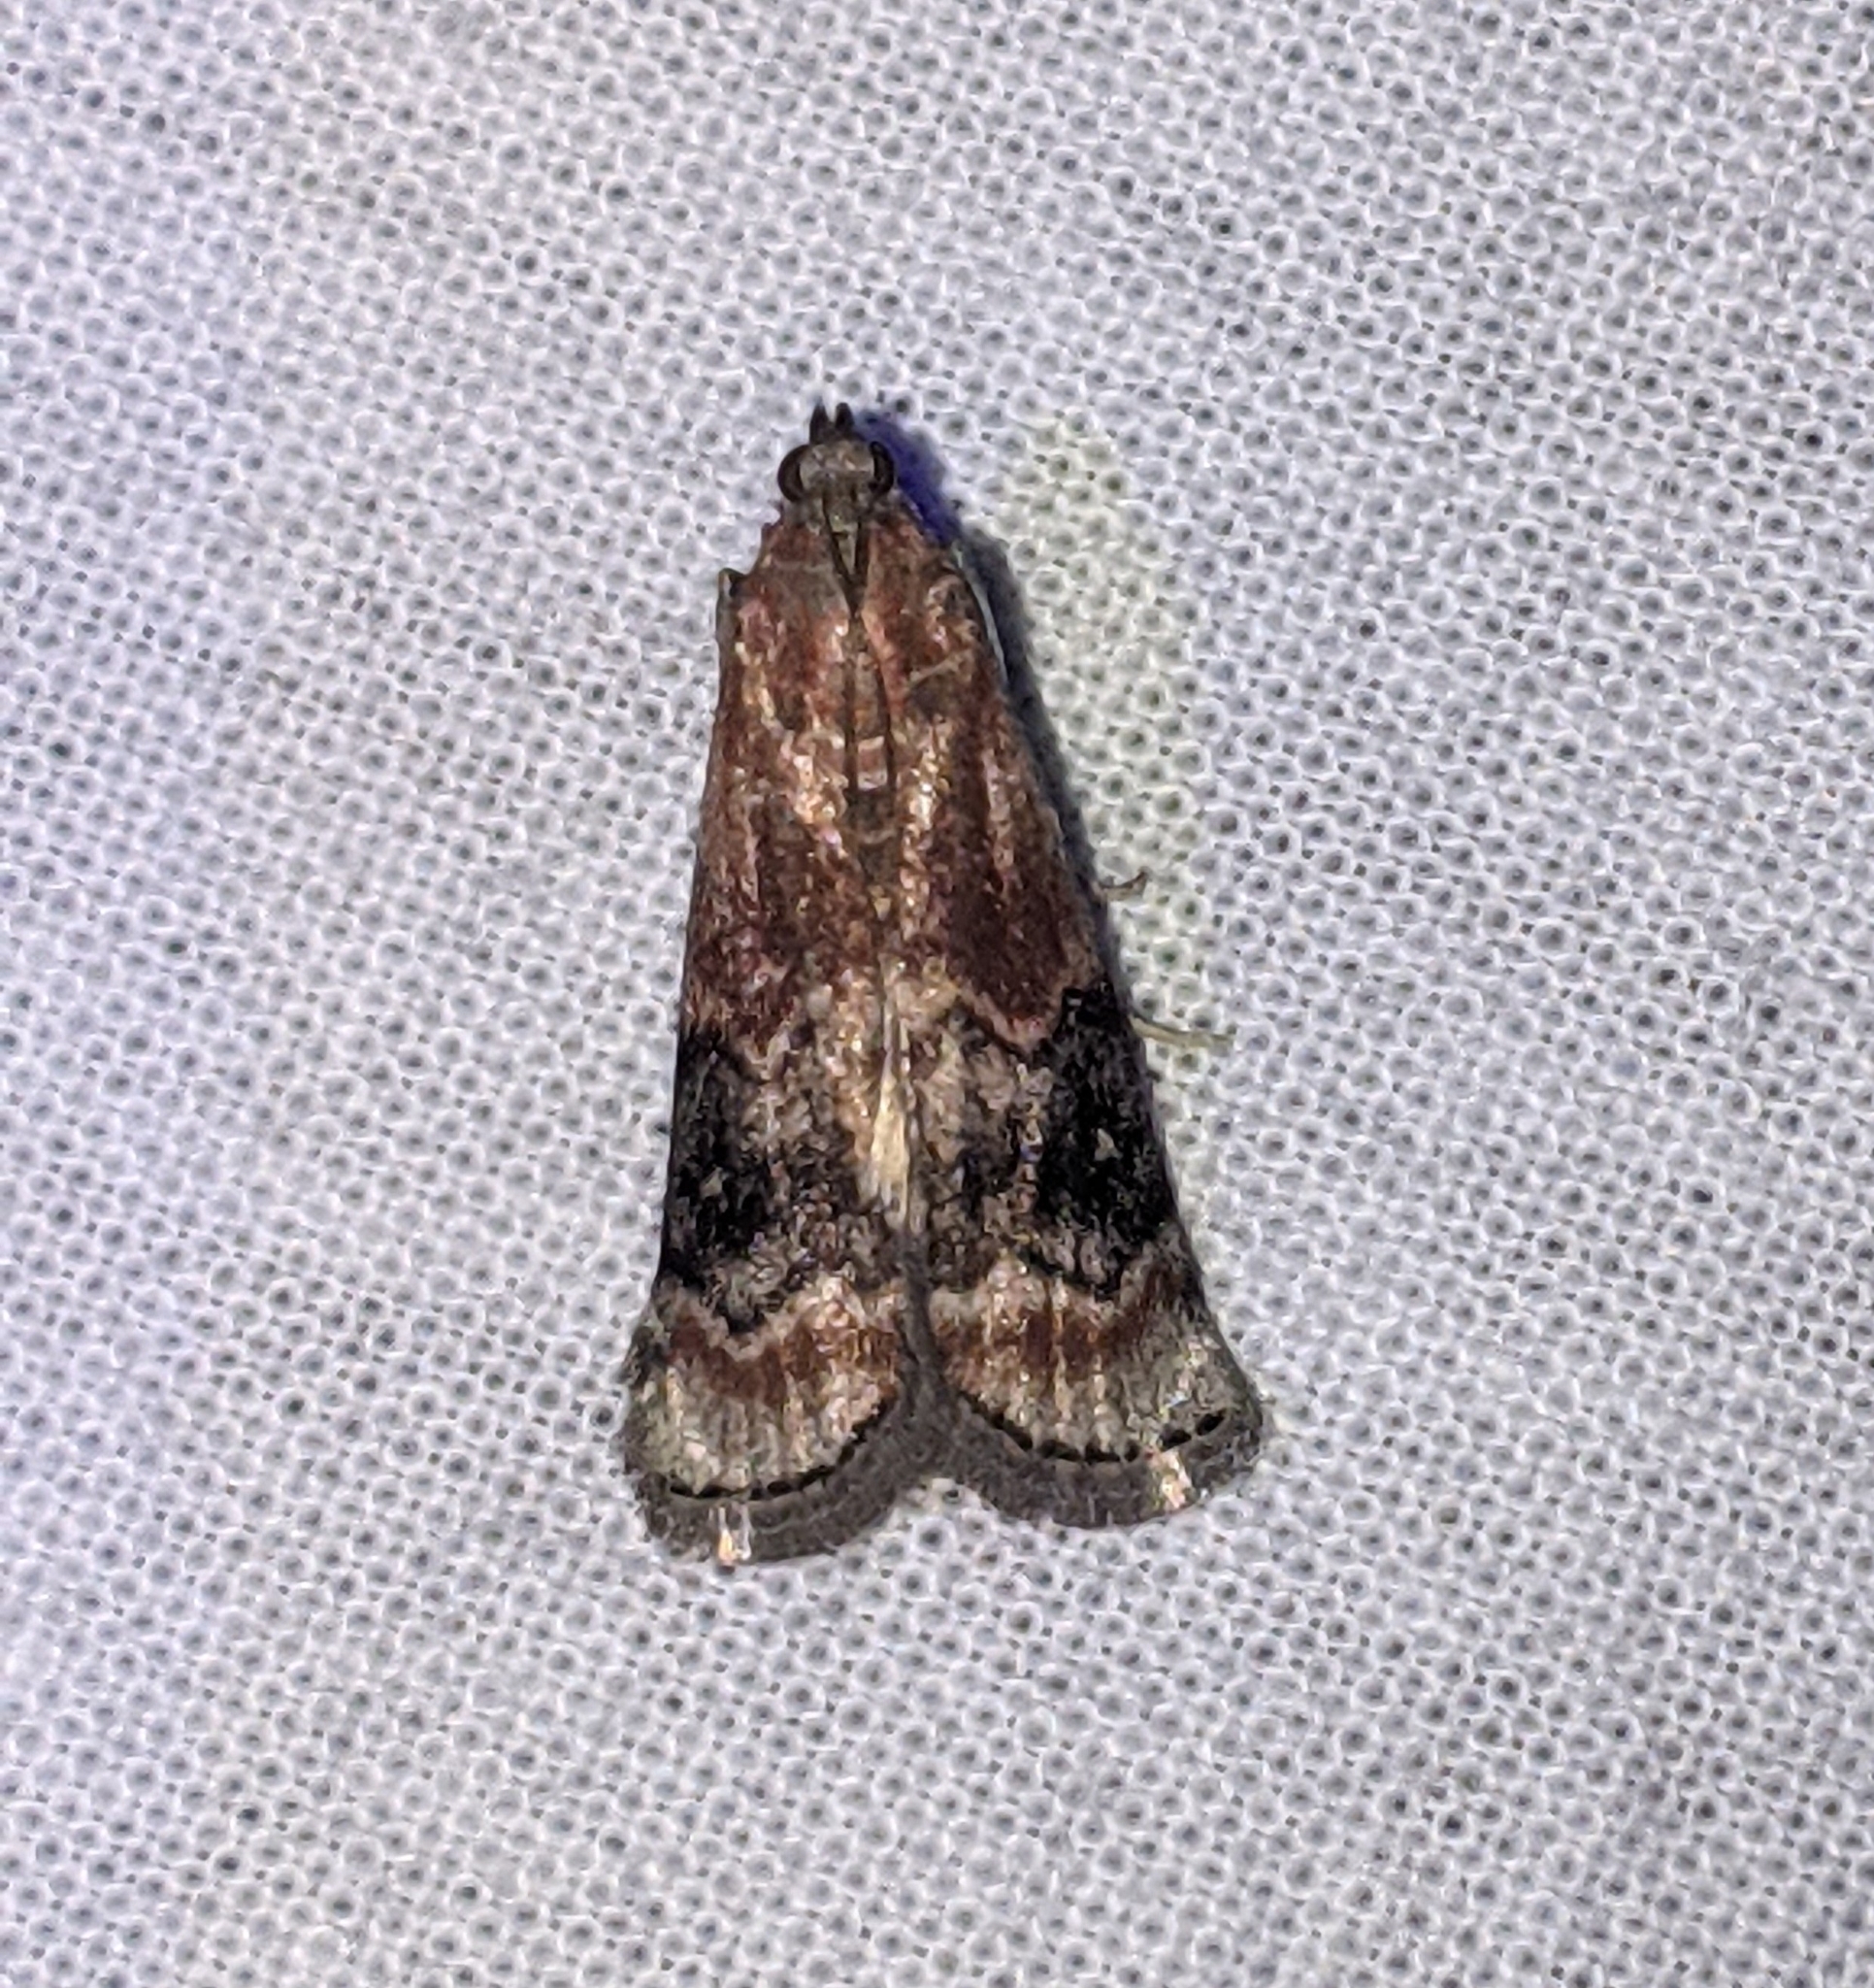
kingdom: Animalia
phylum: Arthropoda
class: Insecta
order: Lepidoptera
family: Pyralidae
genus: Euzophera
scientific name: Euzophera semifuneralis
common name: American plum borer moth
